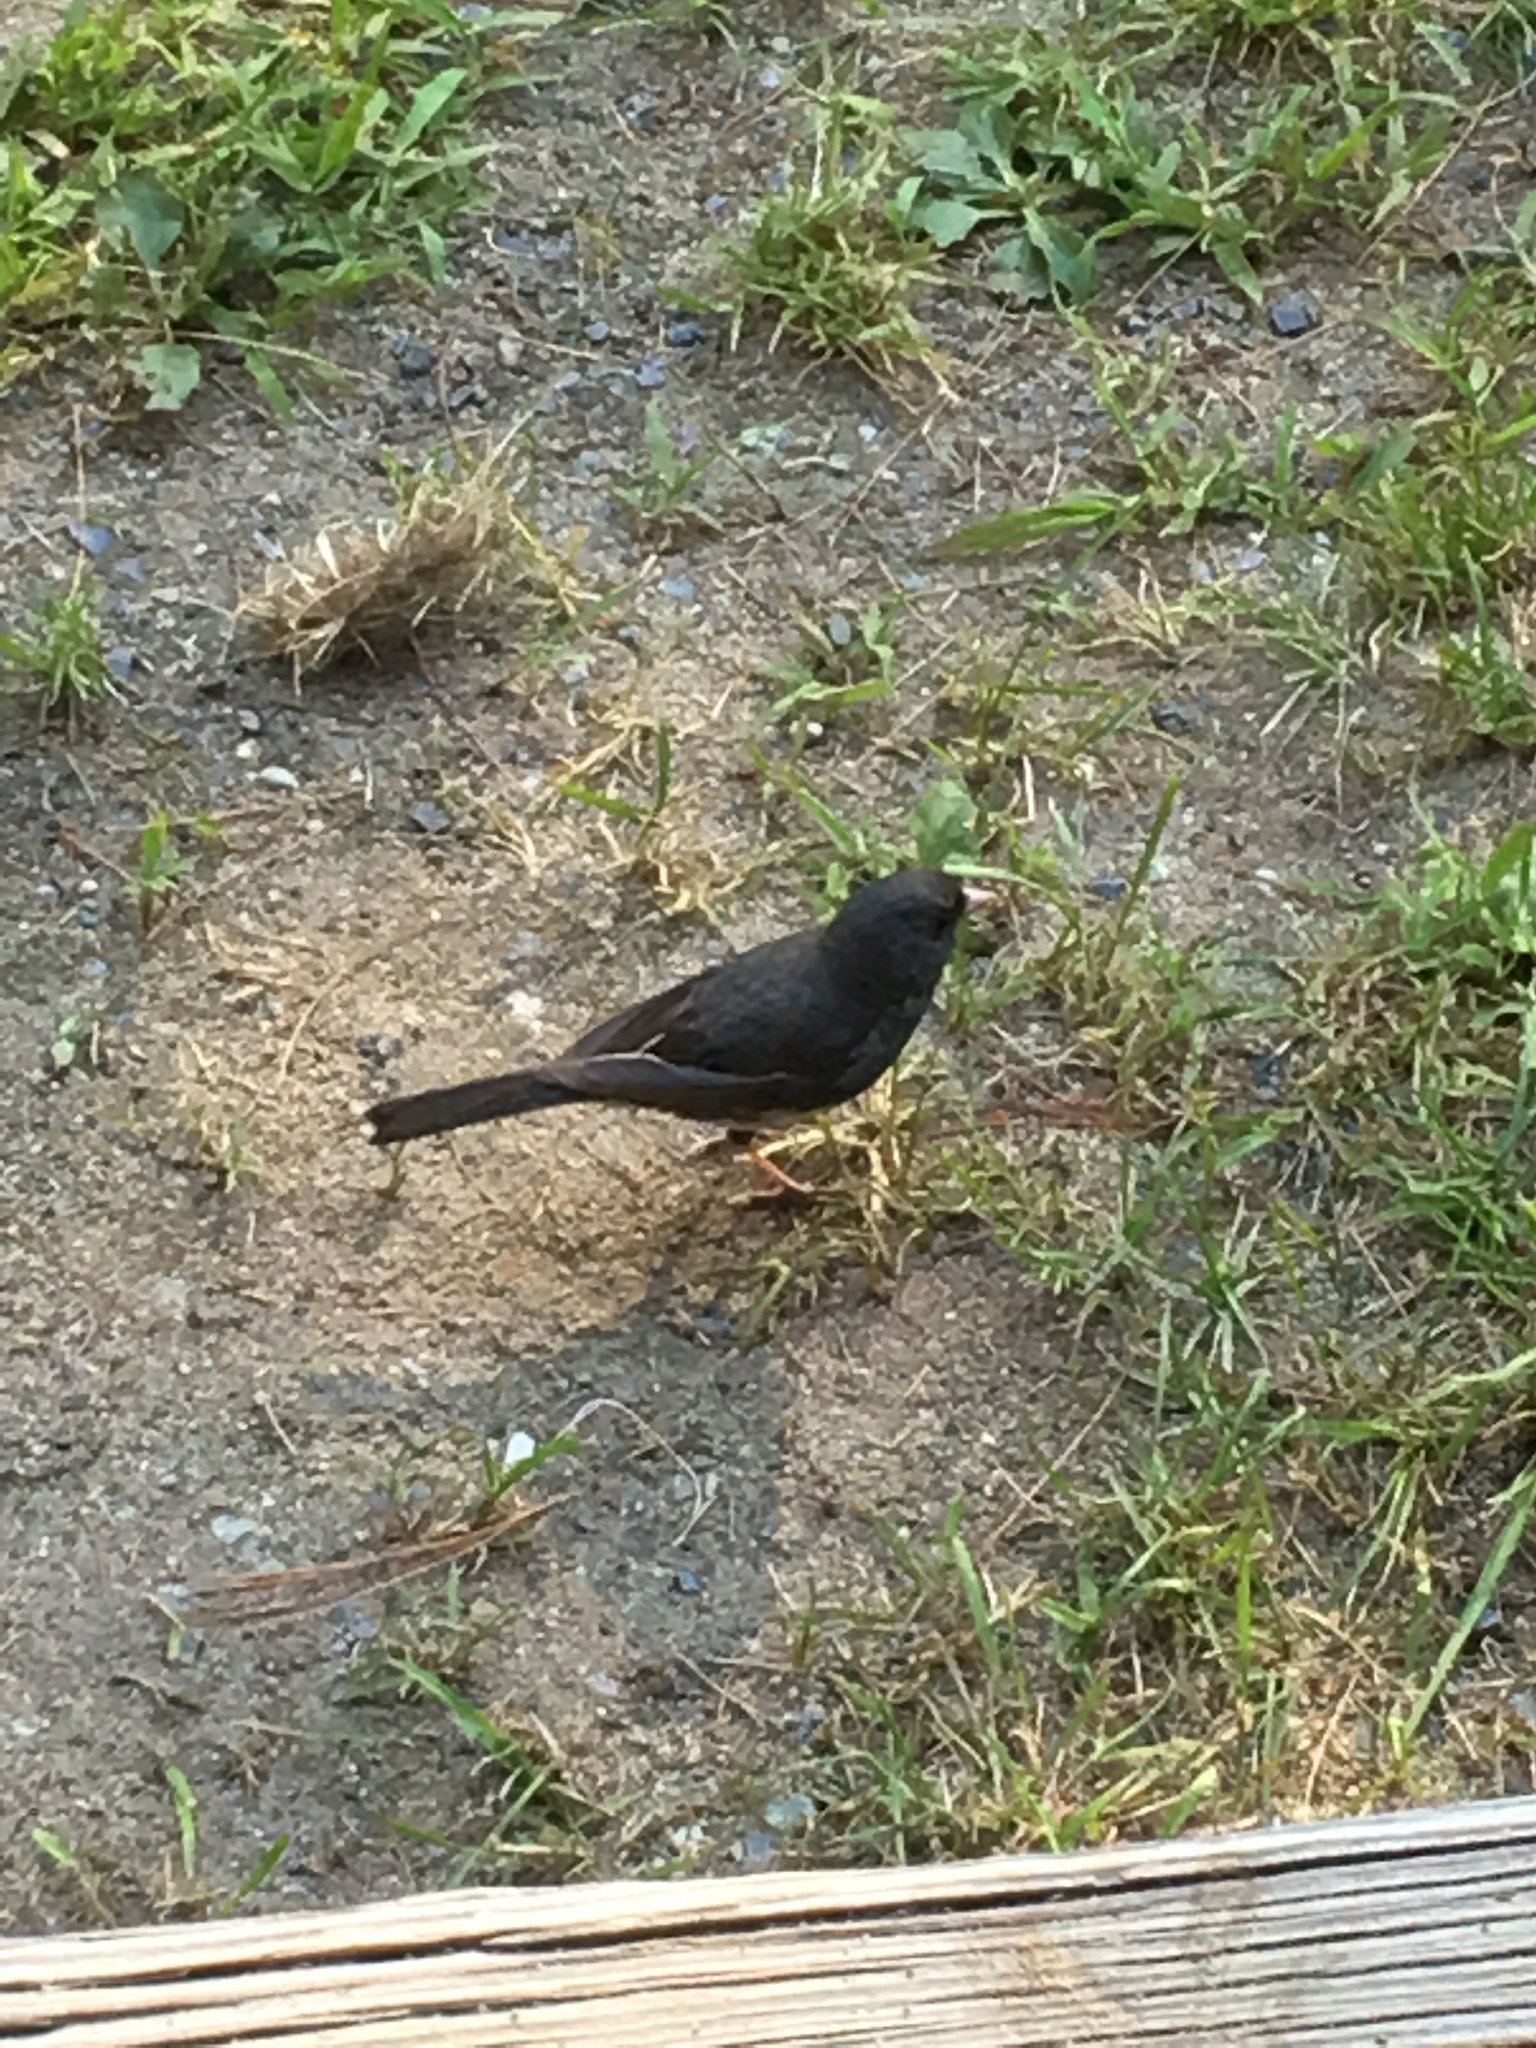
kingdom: Animalia
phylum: Chordata
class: Aves
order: Passeriformes
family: Passerellidae
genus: Junco
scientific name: Junco hyemalis
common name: Dark-eyed junco
